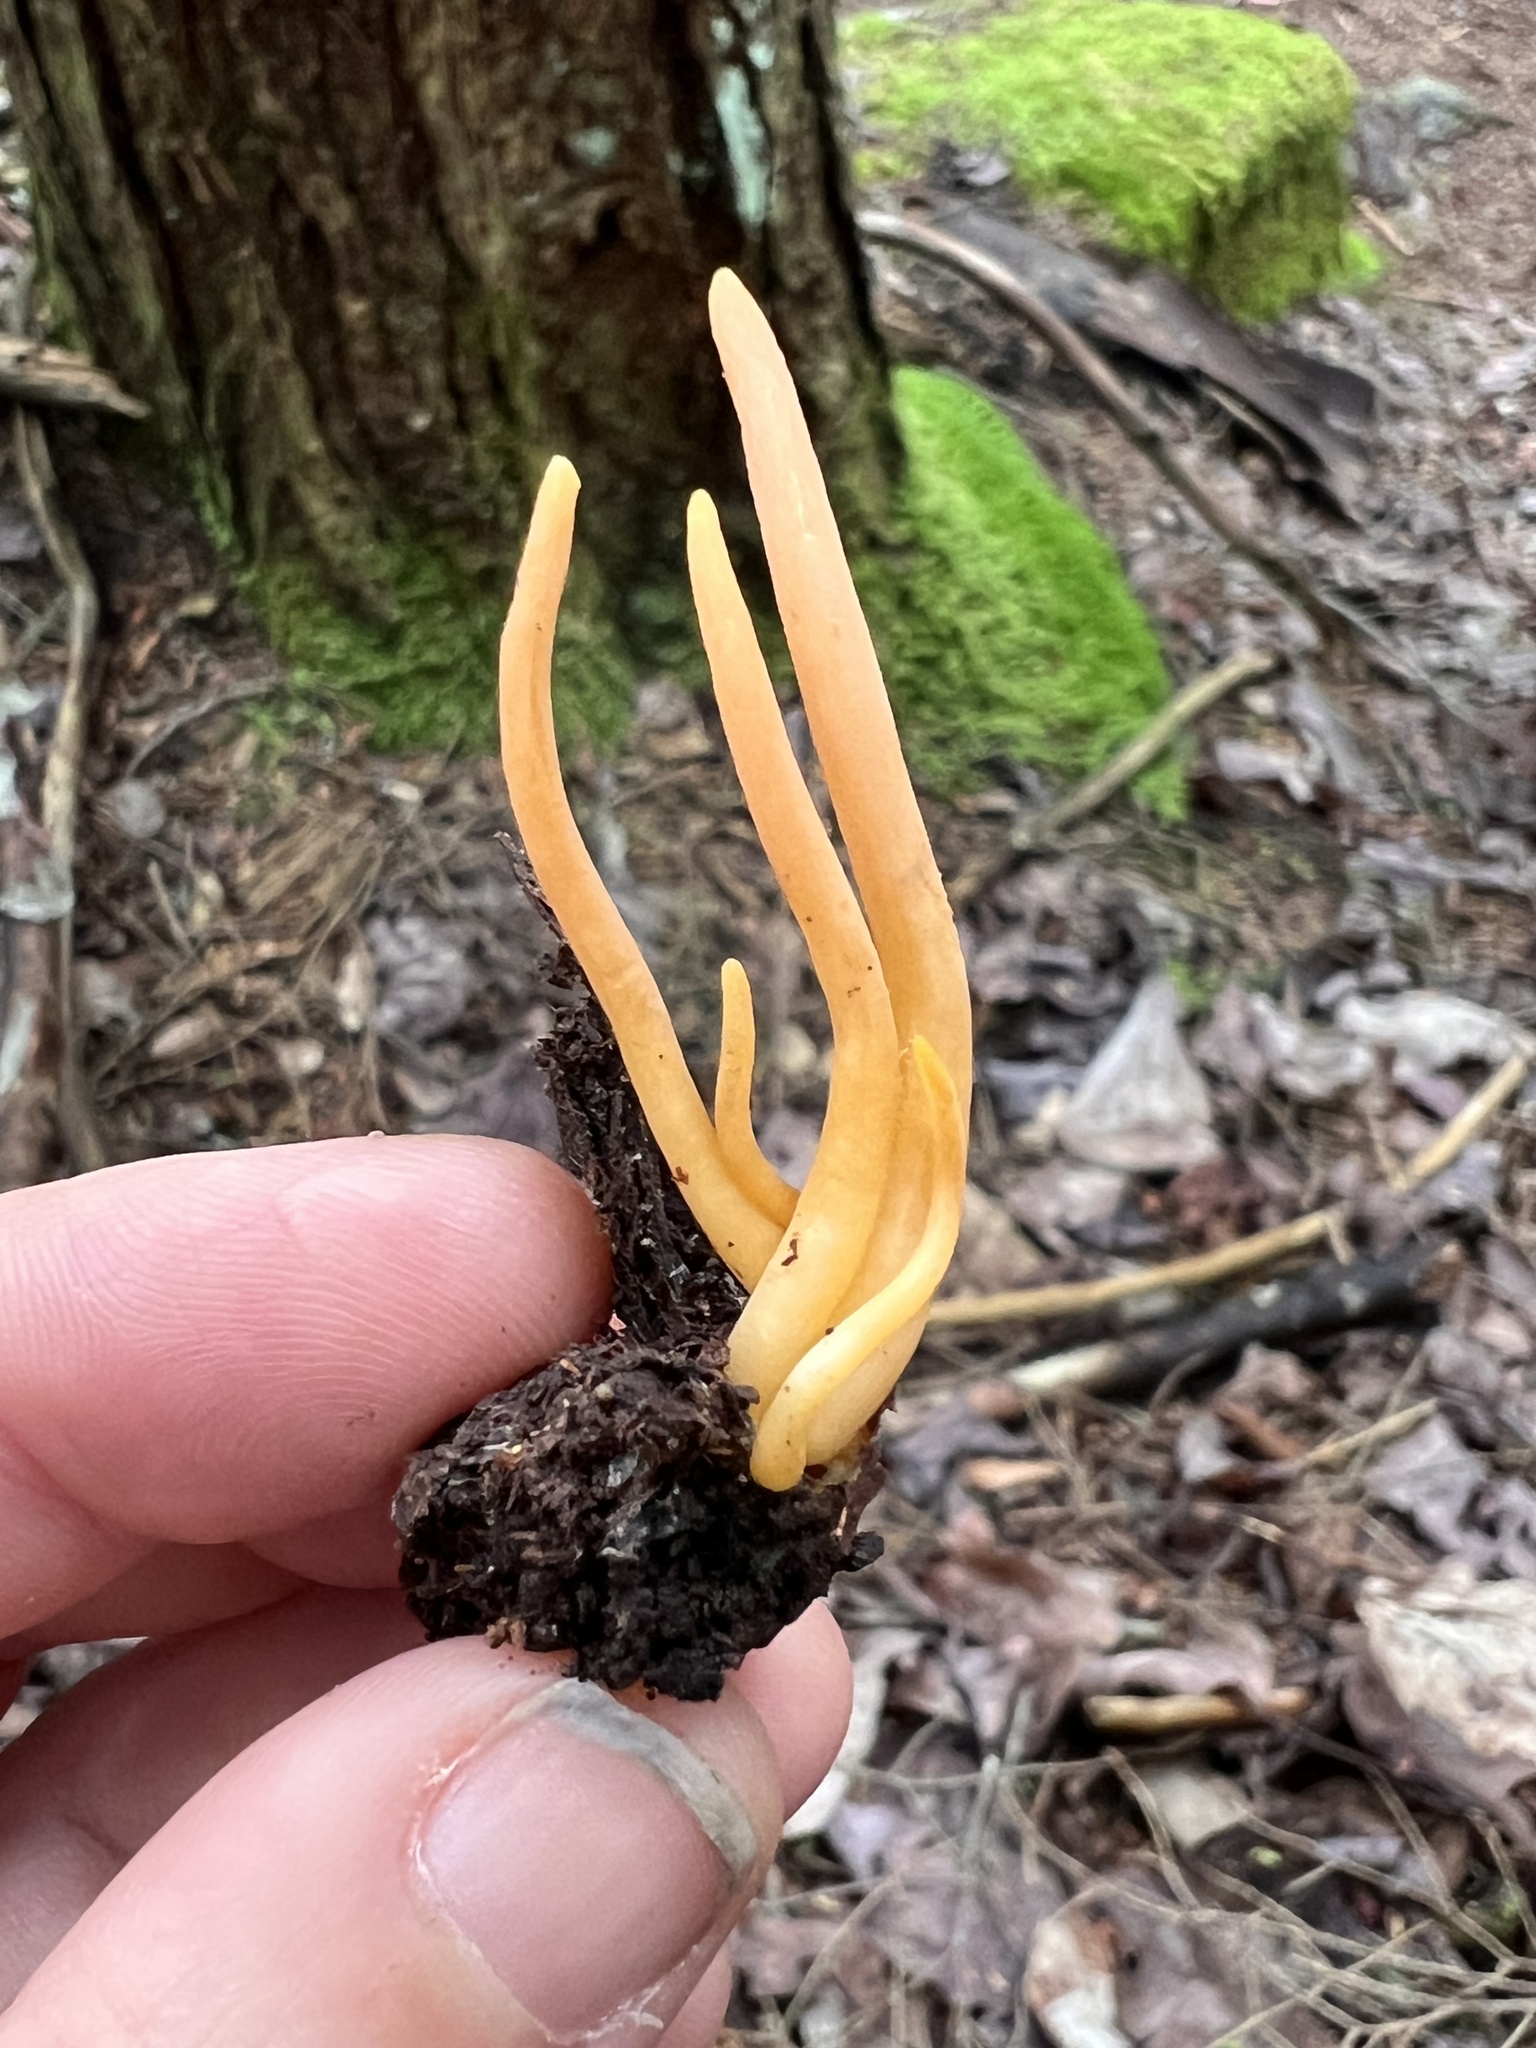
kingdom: Fungi
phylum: Basidiomycota
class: Agaricomycetes
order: Agaricales
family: Clavariaceae
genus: Clavulinopsis
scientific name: Clavulinopsis aurantiocinnabarina
